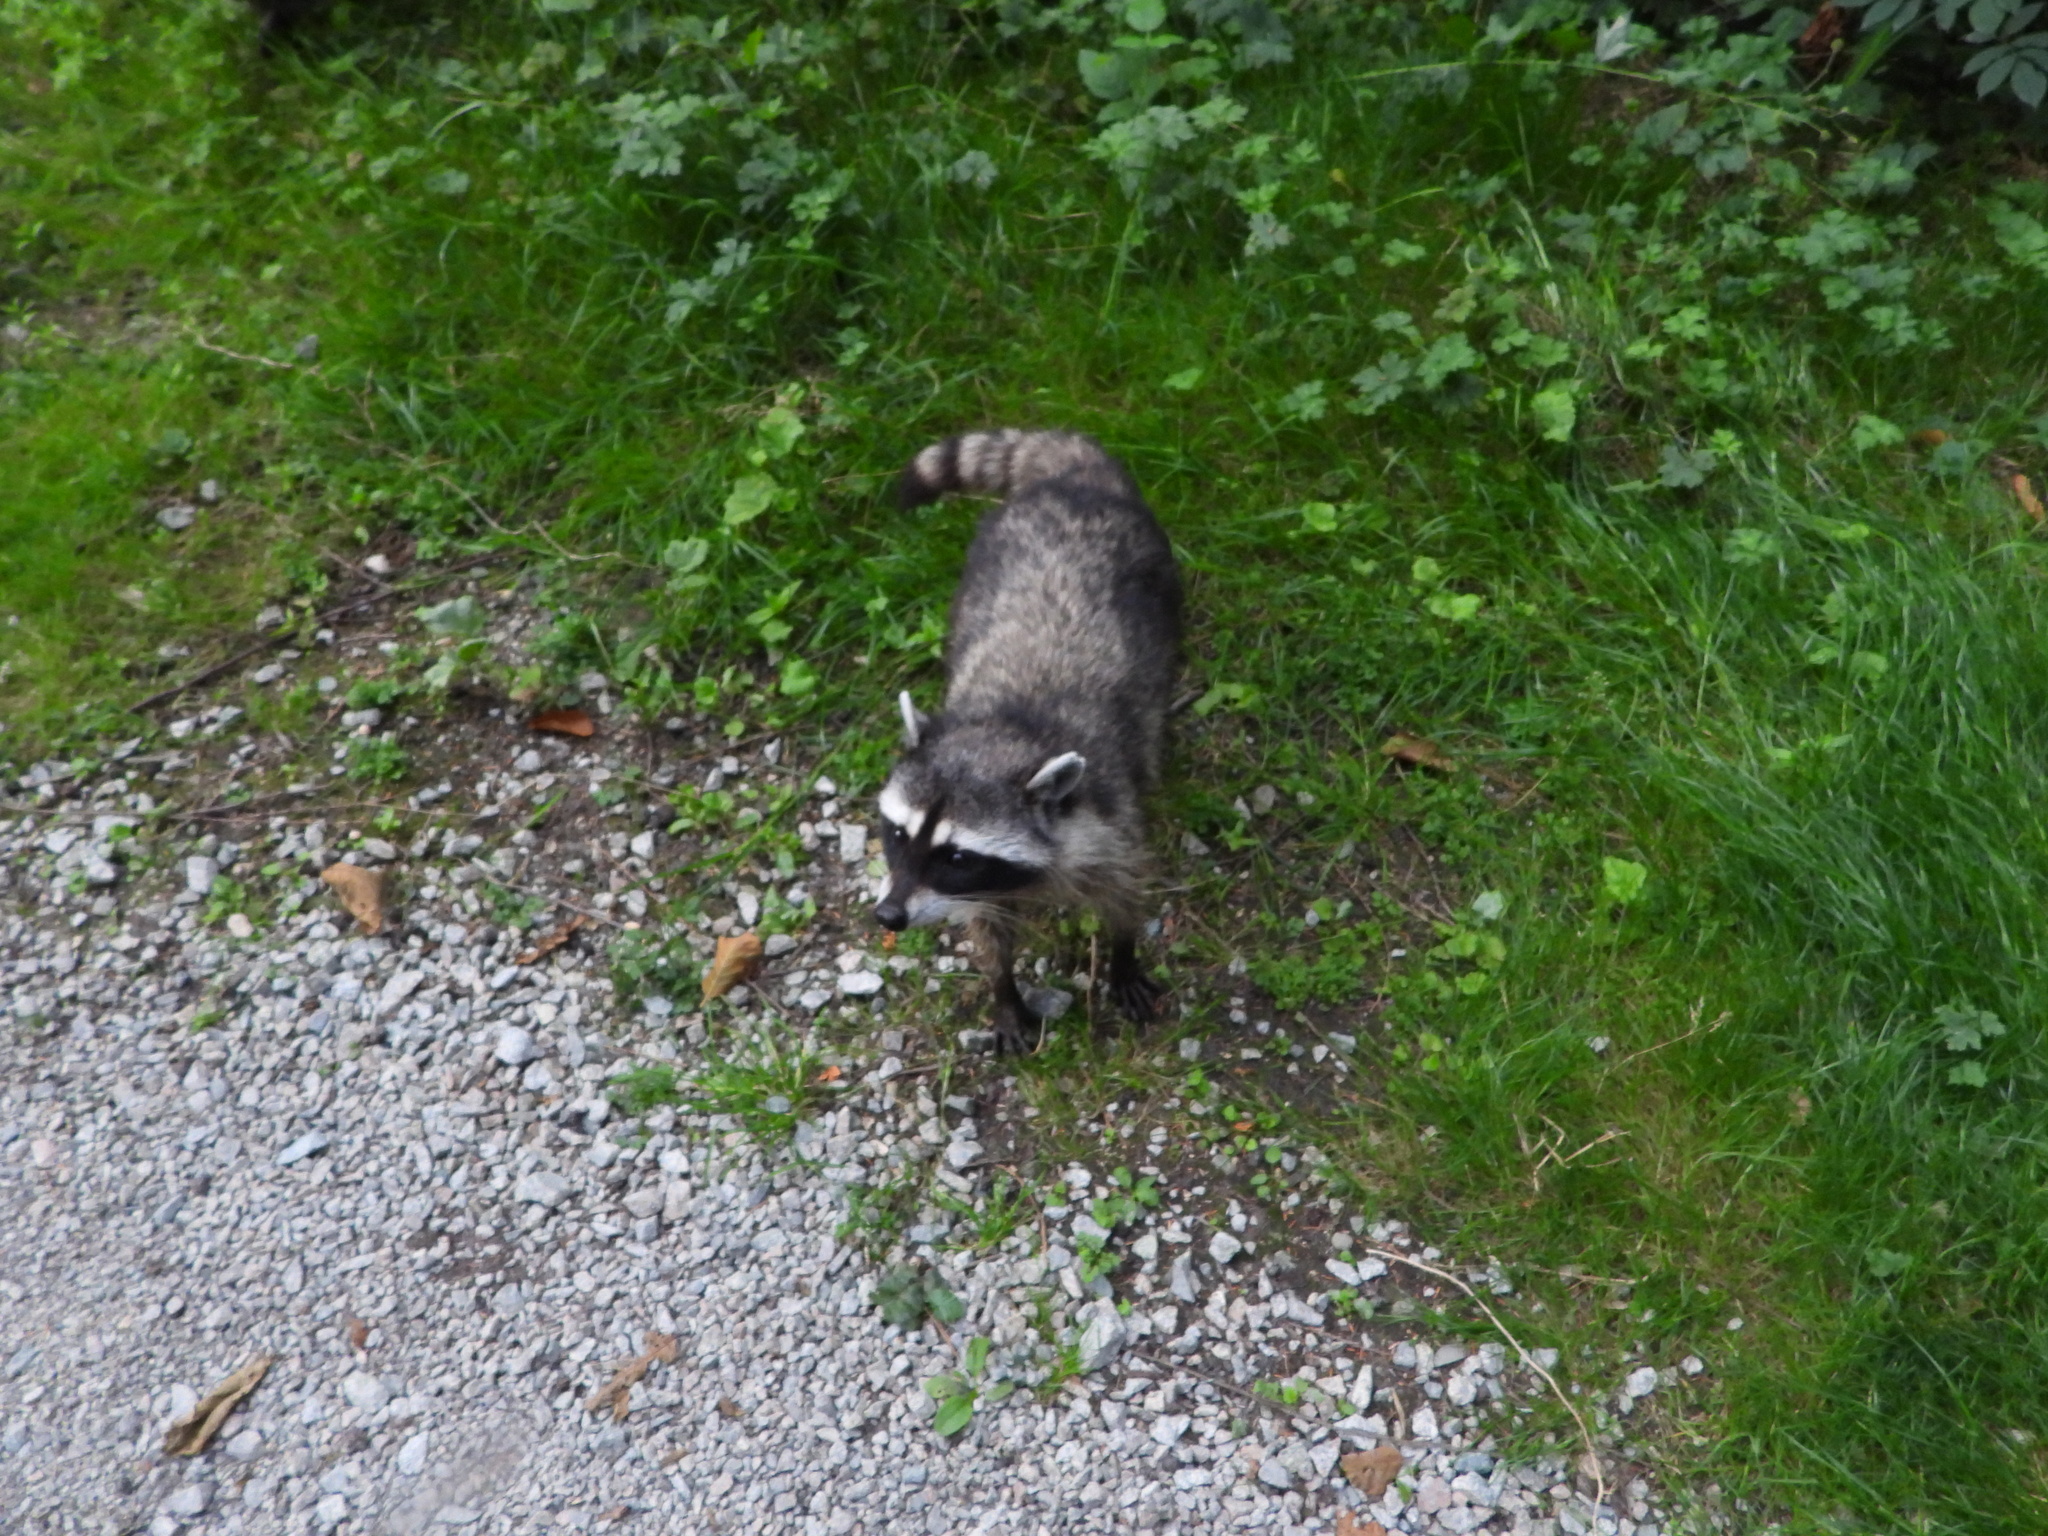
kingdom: Animalia
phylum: Chordata
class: Mammalia
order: Carnivora
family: Procyonidae
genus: Procyon
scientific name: Procyon lotor
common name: Raccoon
